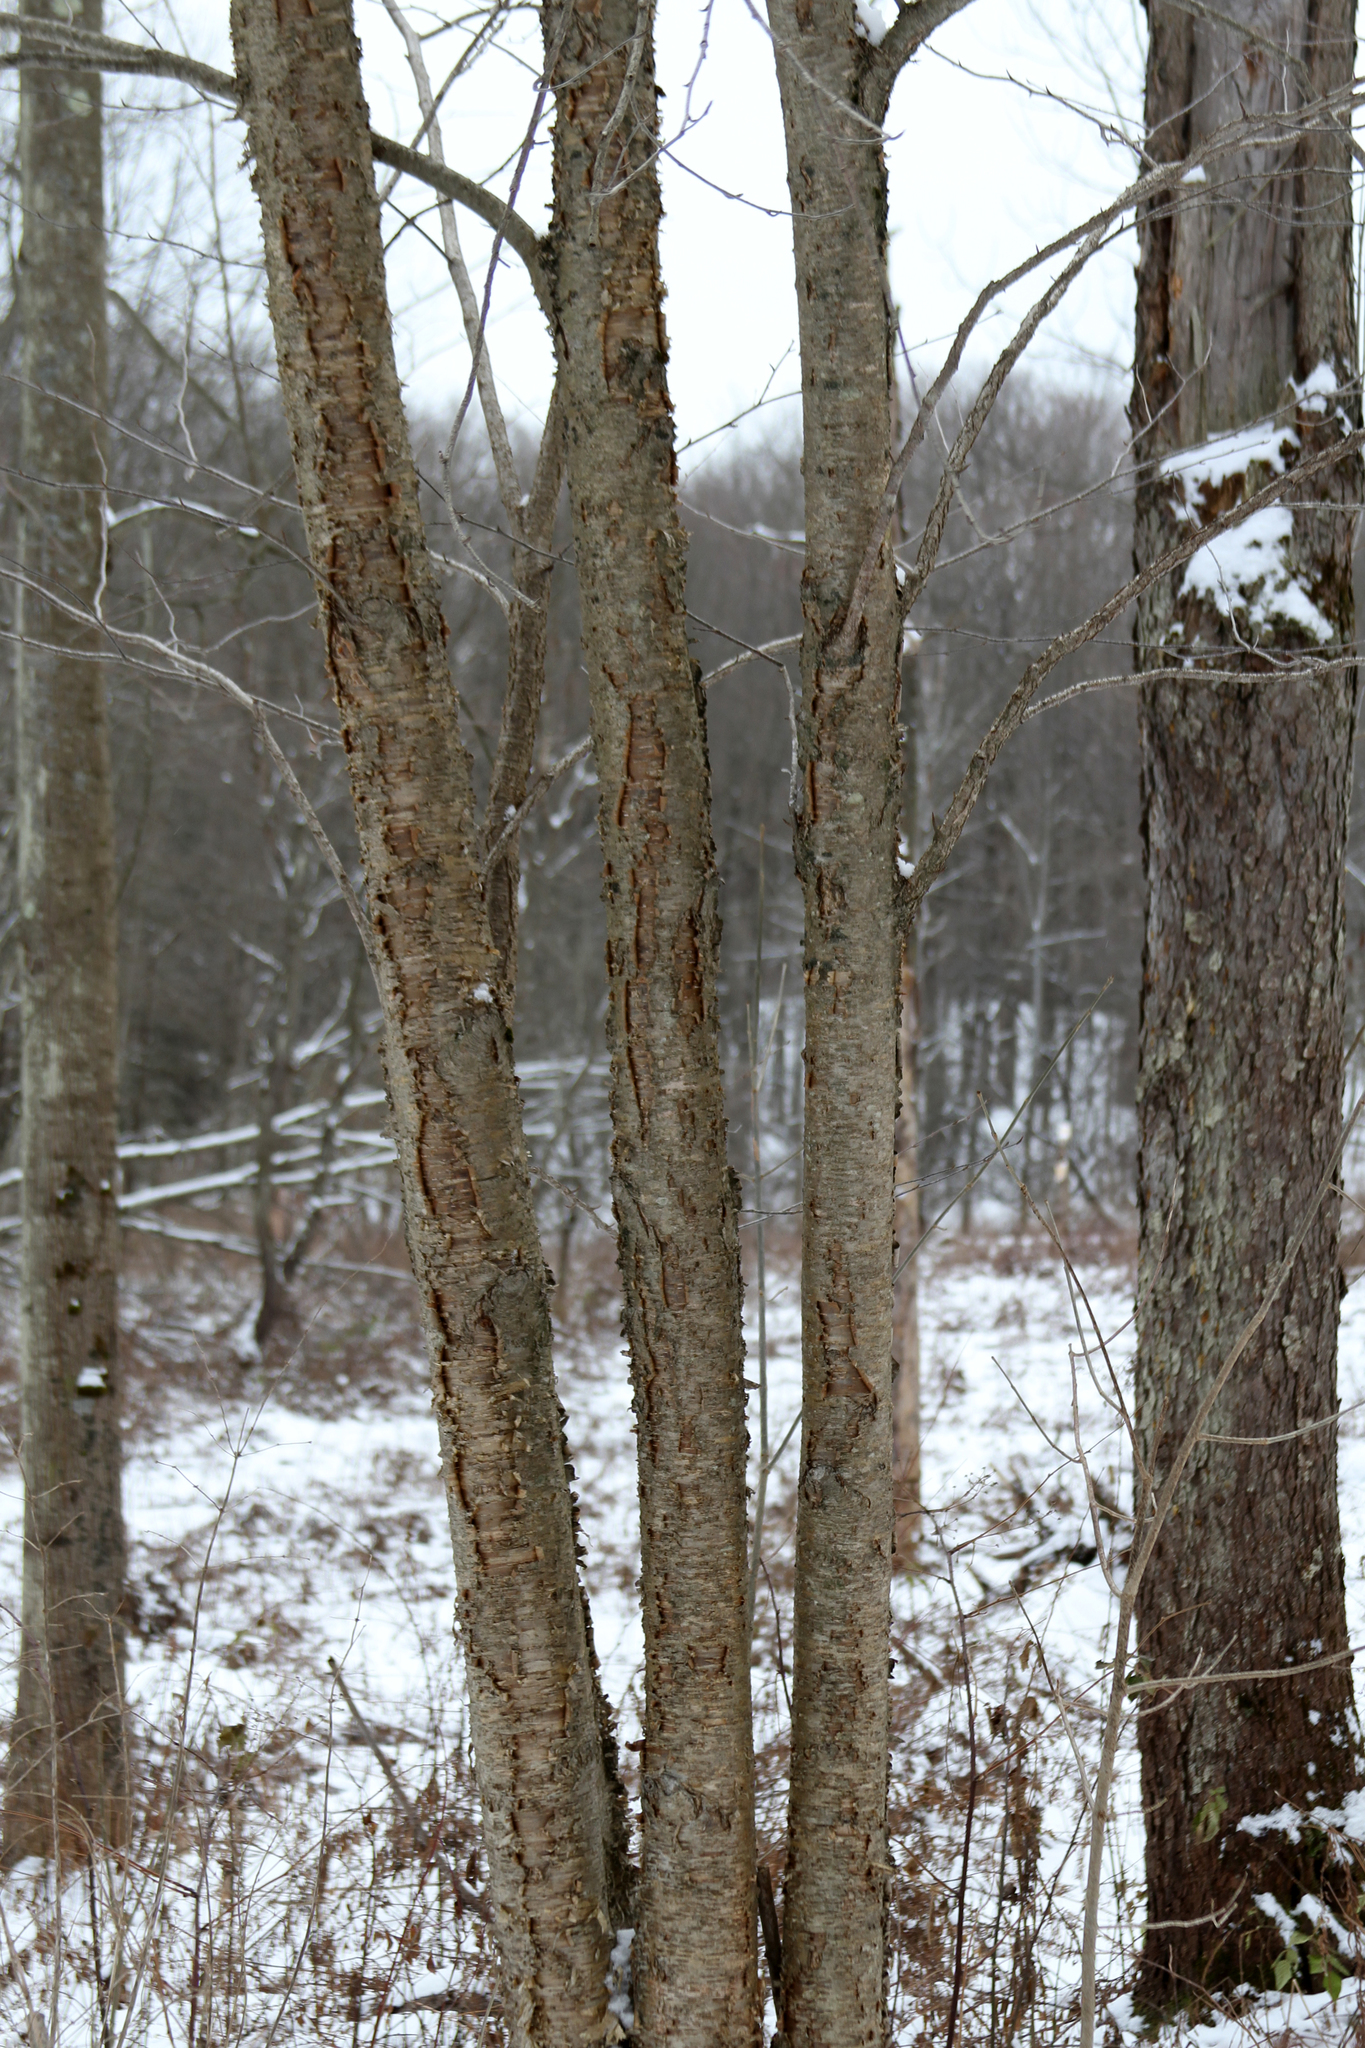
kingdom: Plantae
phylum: Tracheophyta
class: Magnoliopsida
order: Fagales
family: Betulaceae
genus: Betula
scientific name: Betula alleghaniensis
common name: Yellow birch
